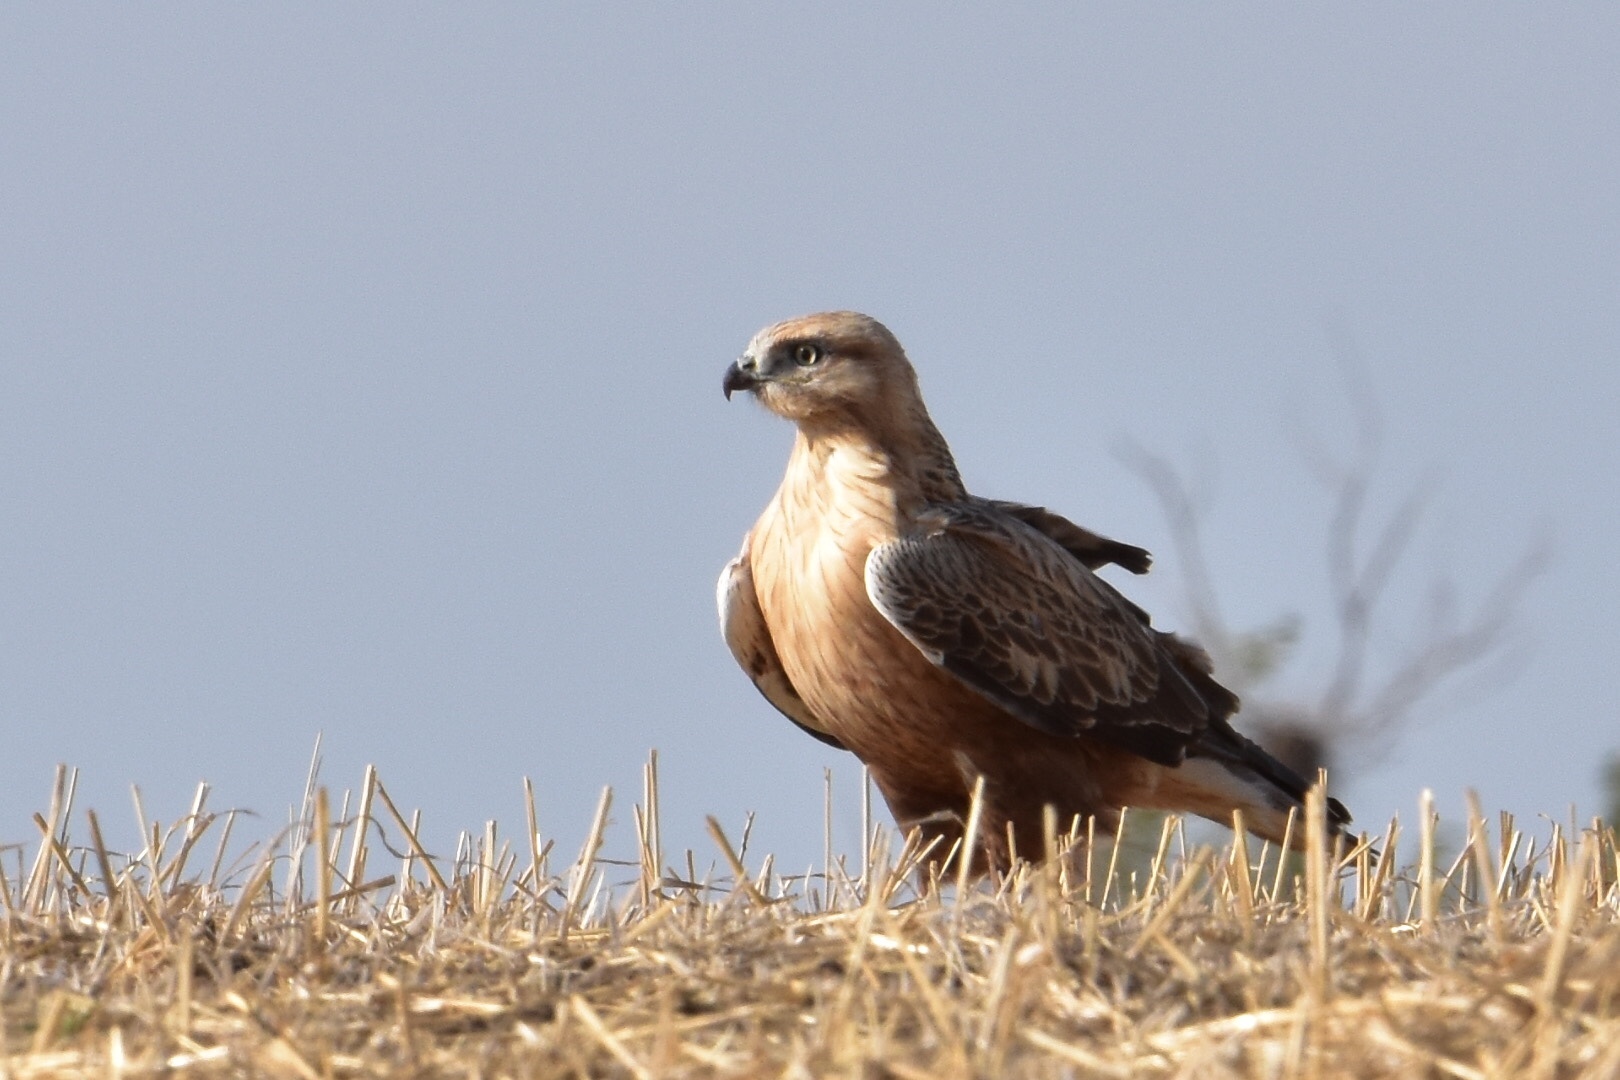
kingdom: Animalia
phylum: Chordata
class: Aves
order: Accipitriformes
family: Accipitridae
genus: Buteo
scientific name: Buteo rufinus
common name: Long-legged buzzard
